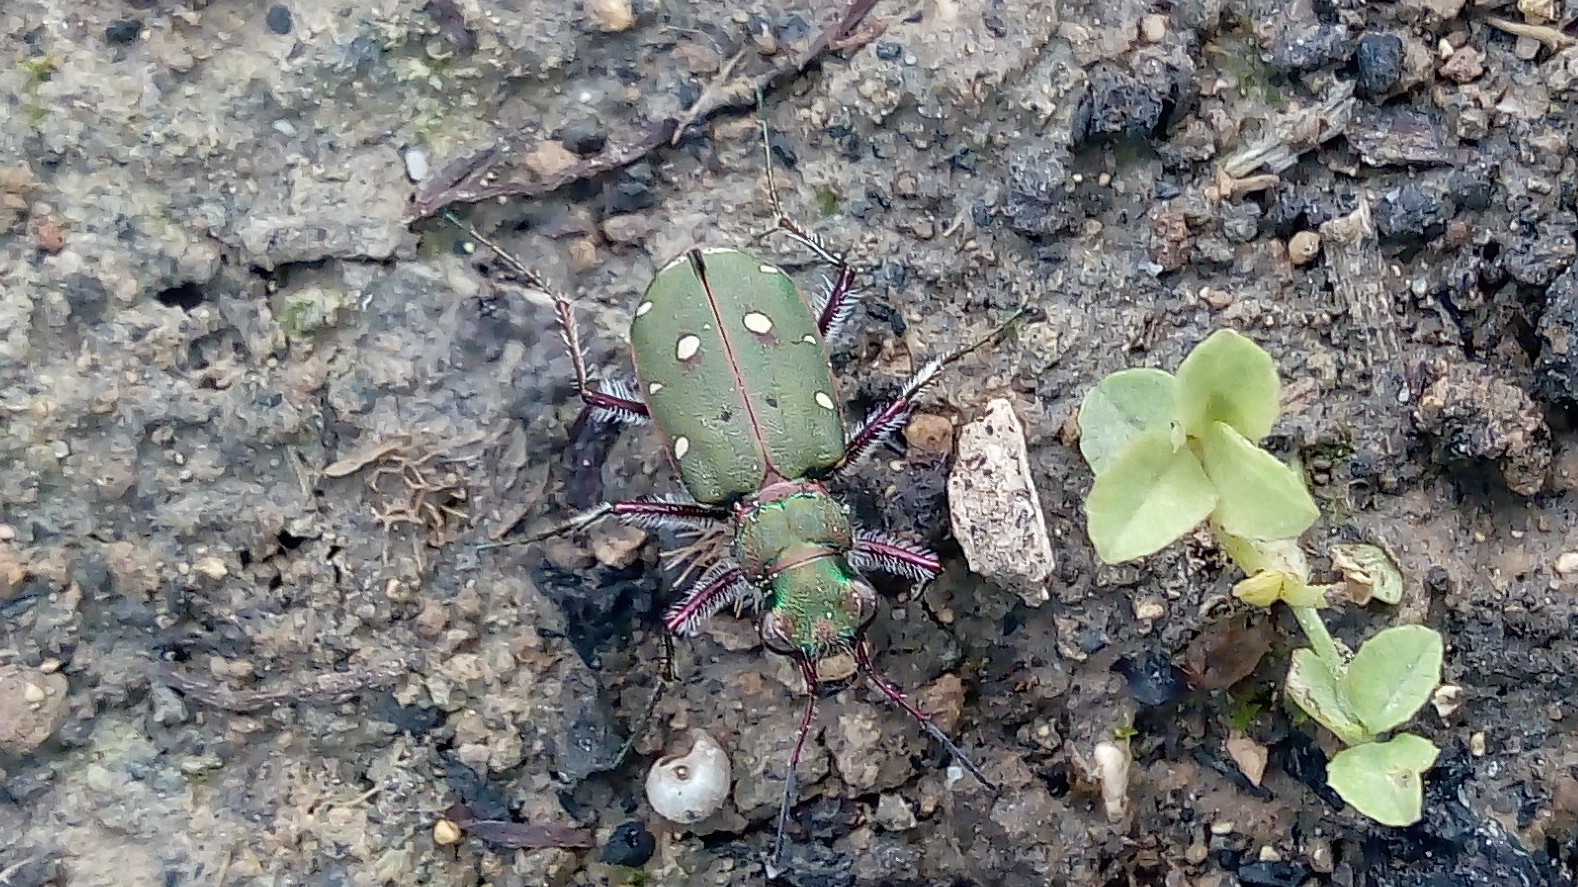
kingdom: Animalia
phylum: Arthropoda
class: Insecta
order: Coleoptera
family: Carabidae
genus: Cicindela
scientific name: Cicindela campestris
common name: Common tiger beetle
